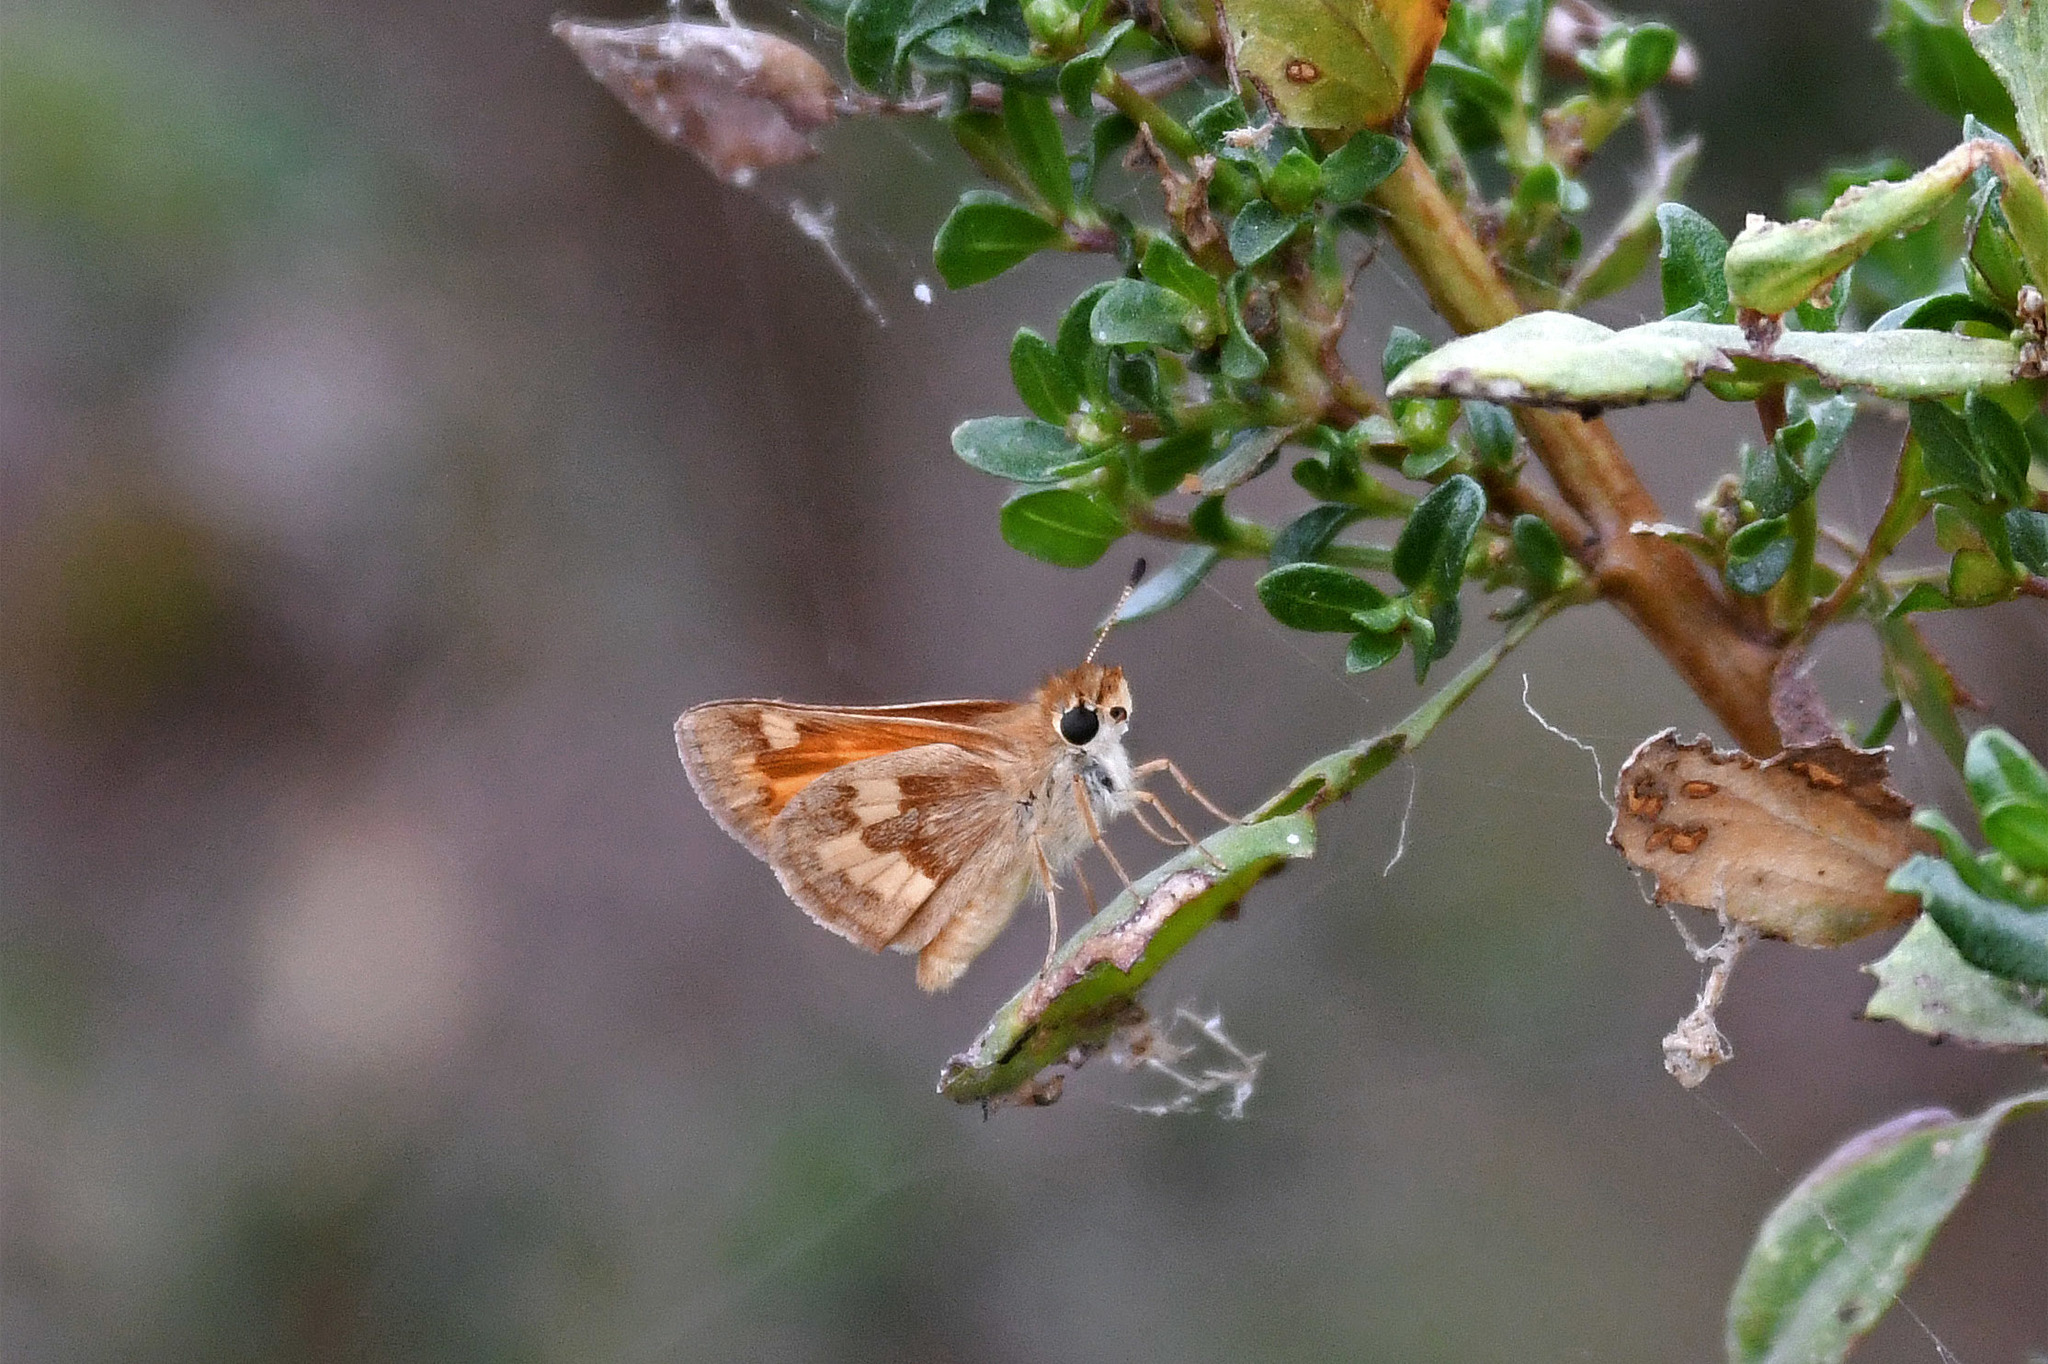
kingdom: Animalia
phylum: Arthropoda
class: Insecta
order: Lepidoptera
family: Hesperiidae
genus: Ochlodes
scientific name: Ochlodes sylvanoides
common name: Woodland skipper
